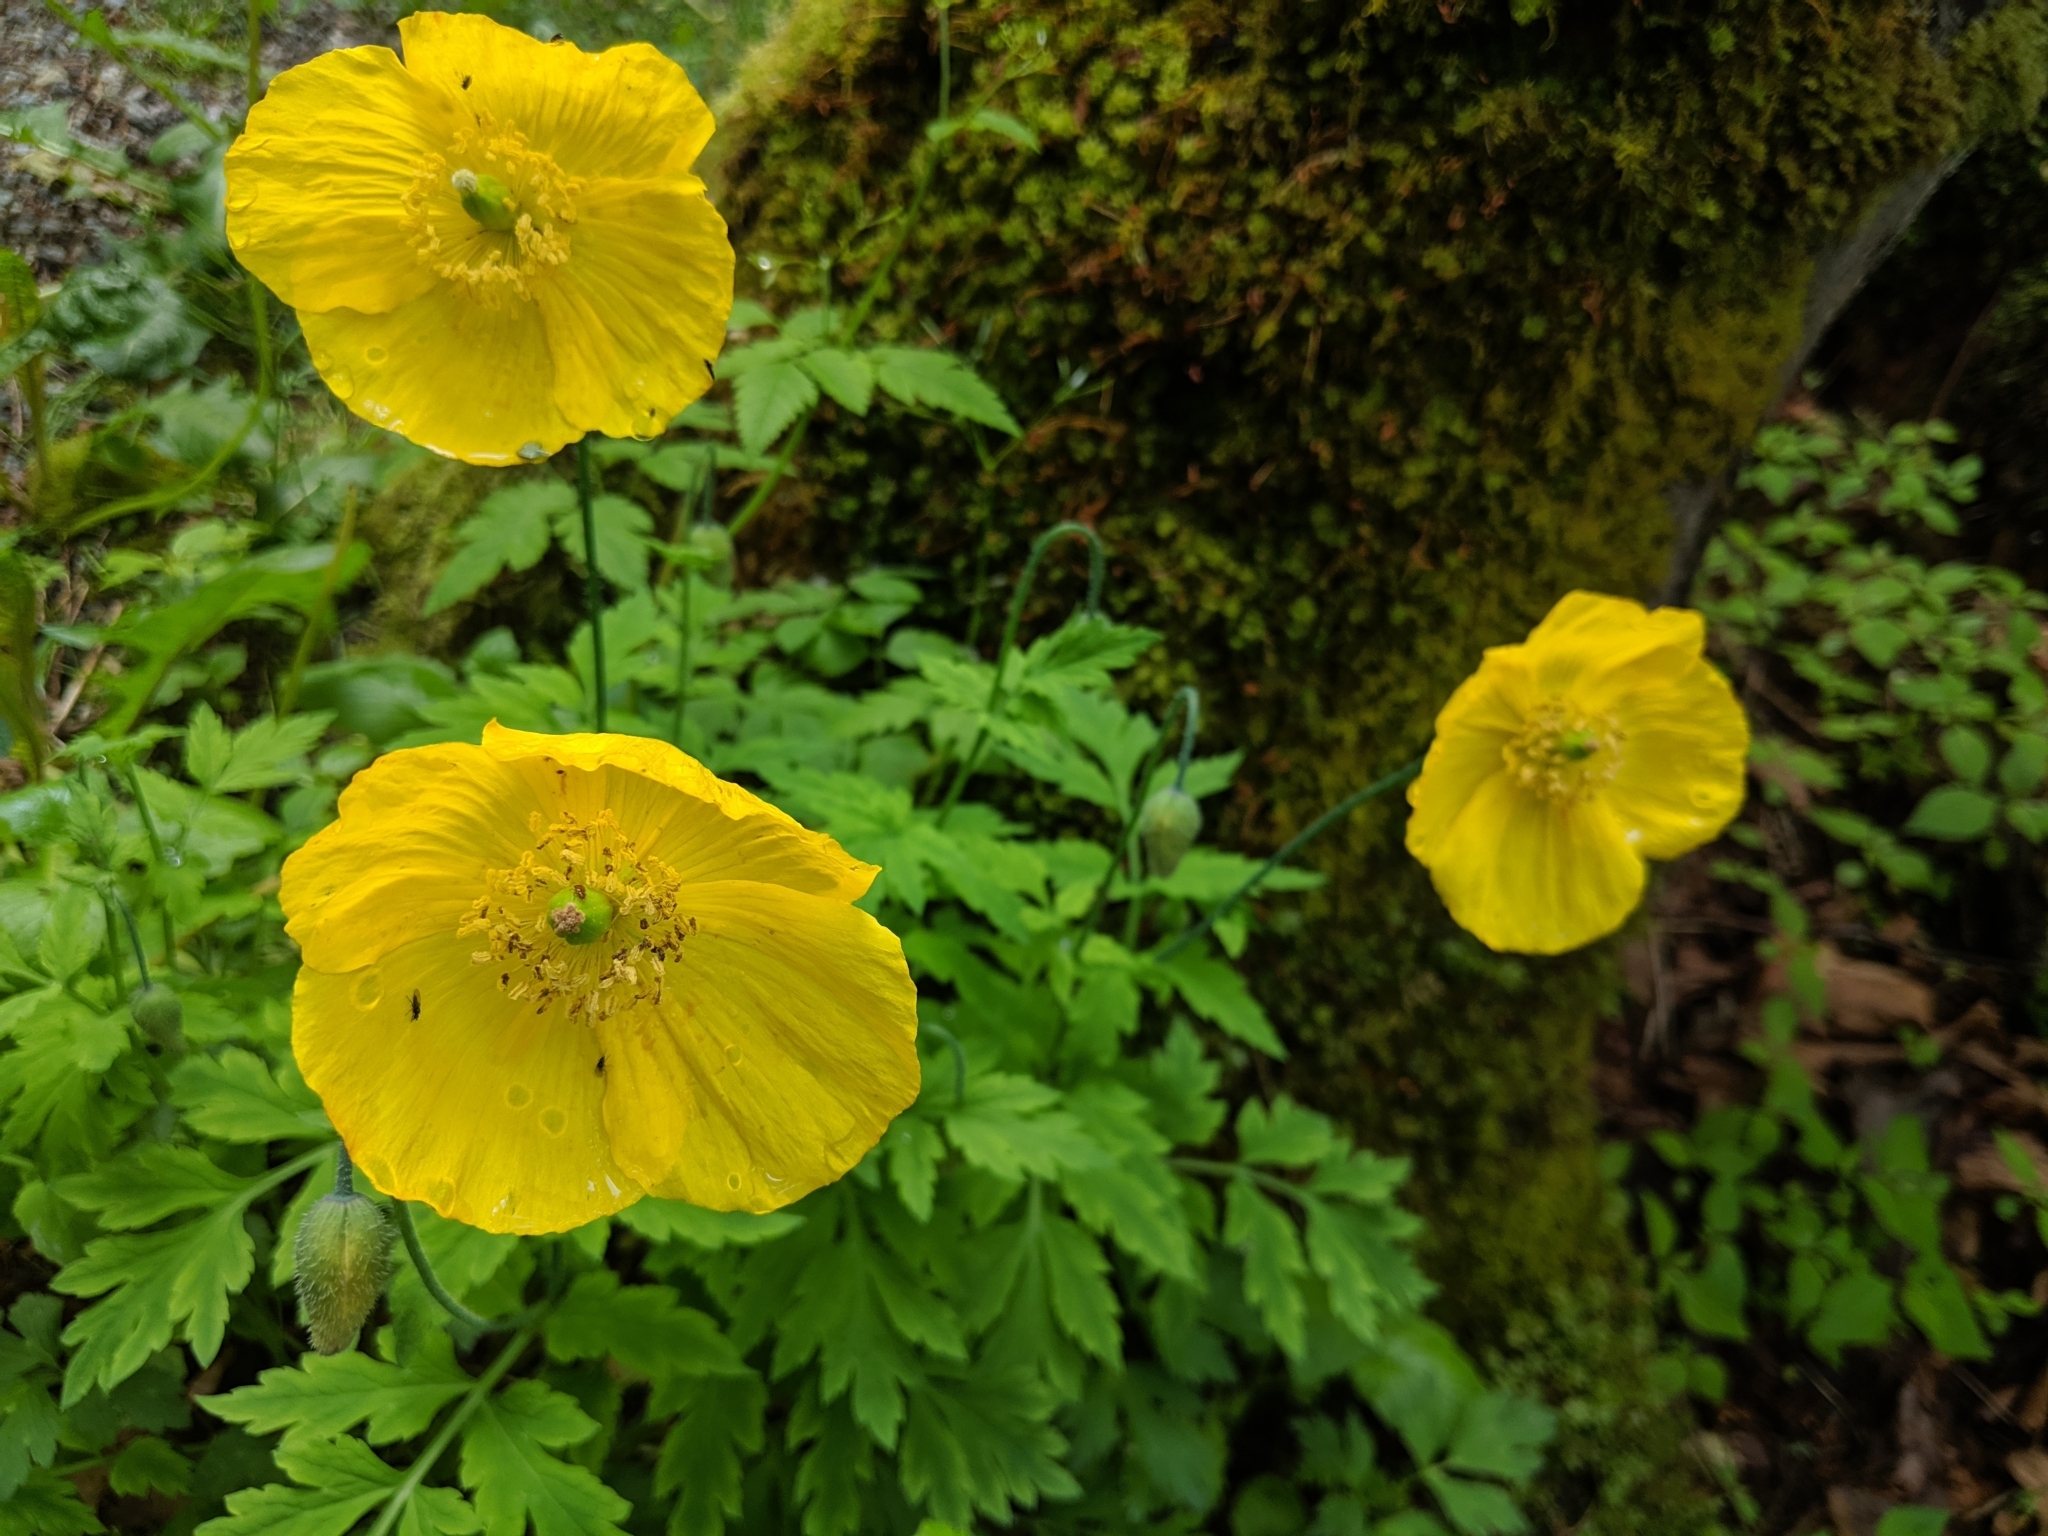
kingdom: Plantae
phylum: Tracheophyta
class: Magnoliopsida
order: Ranunculales
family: Papaveraceae
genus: Papaver
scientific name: Papaver cambricum
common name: Poppy
